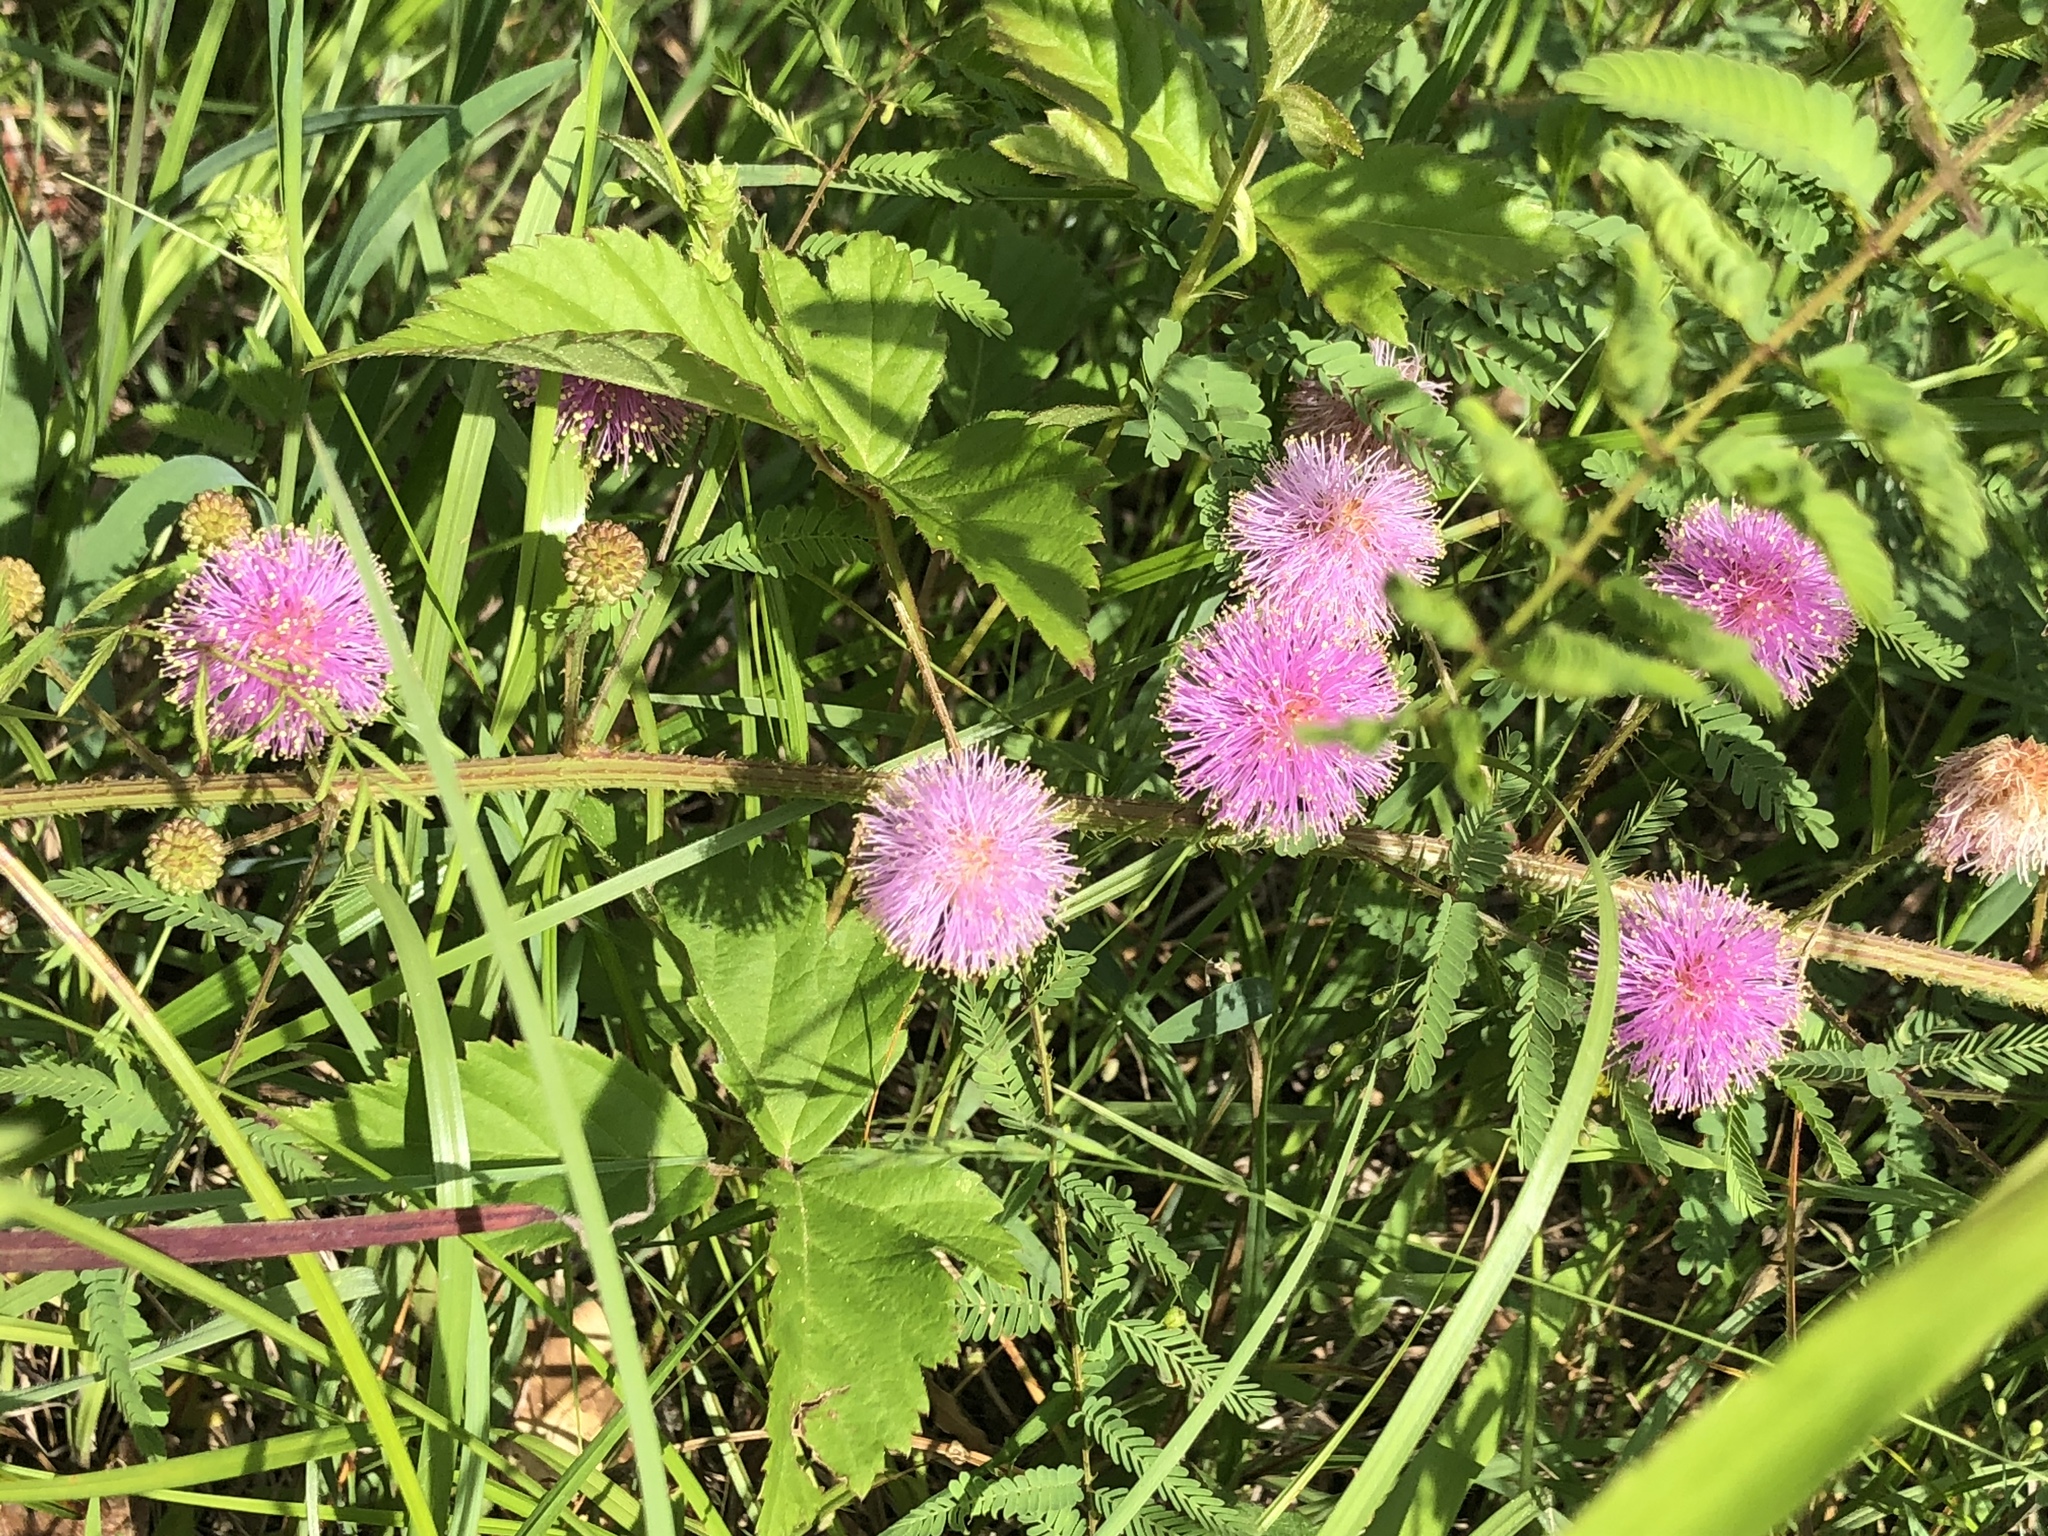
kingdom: Plantae
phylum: Tracheophyta
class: Magnoliopsida
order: Fabales
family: Fabaceae
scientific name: Fabaceae
